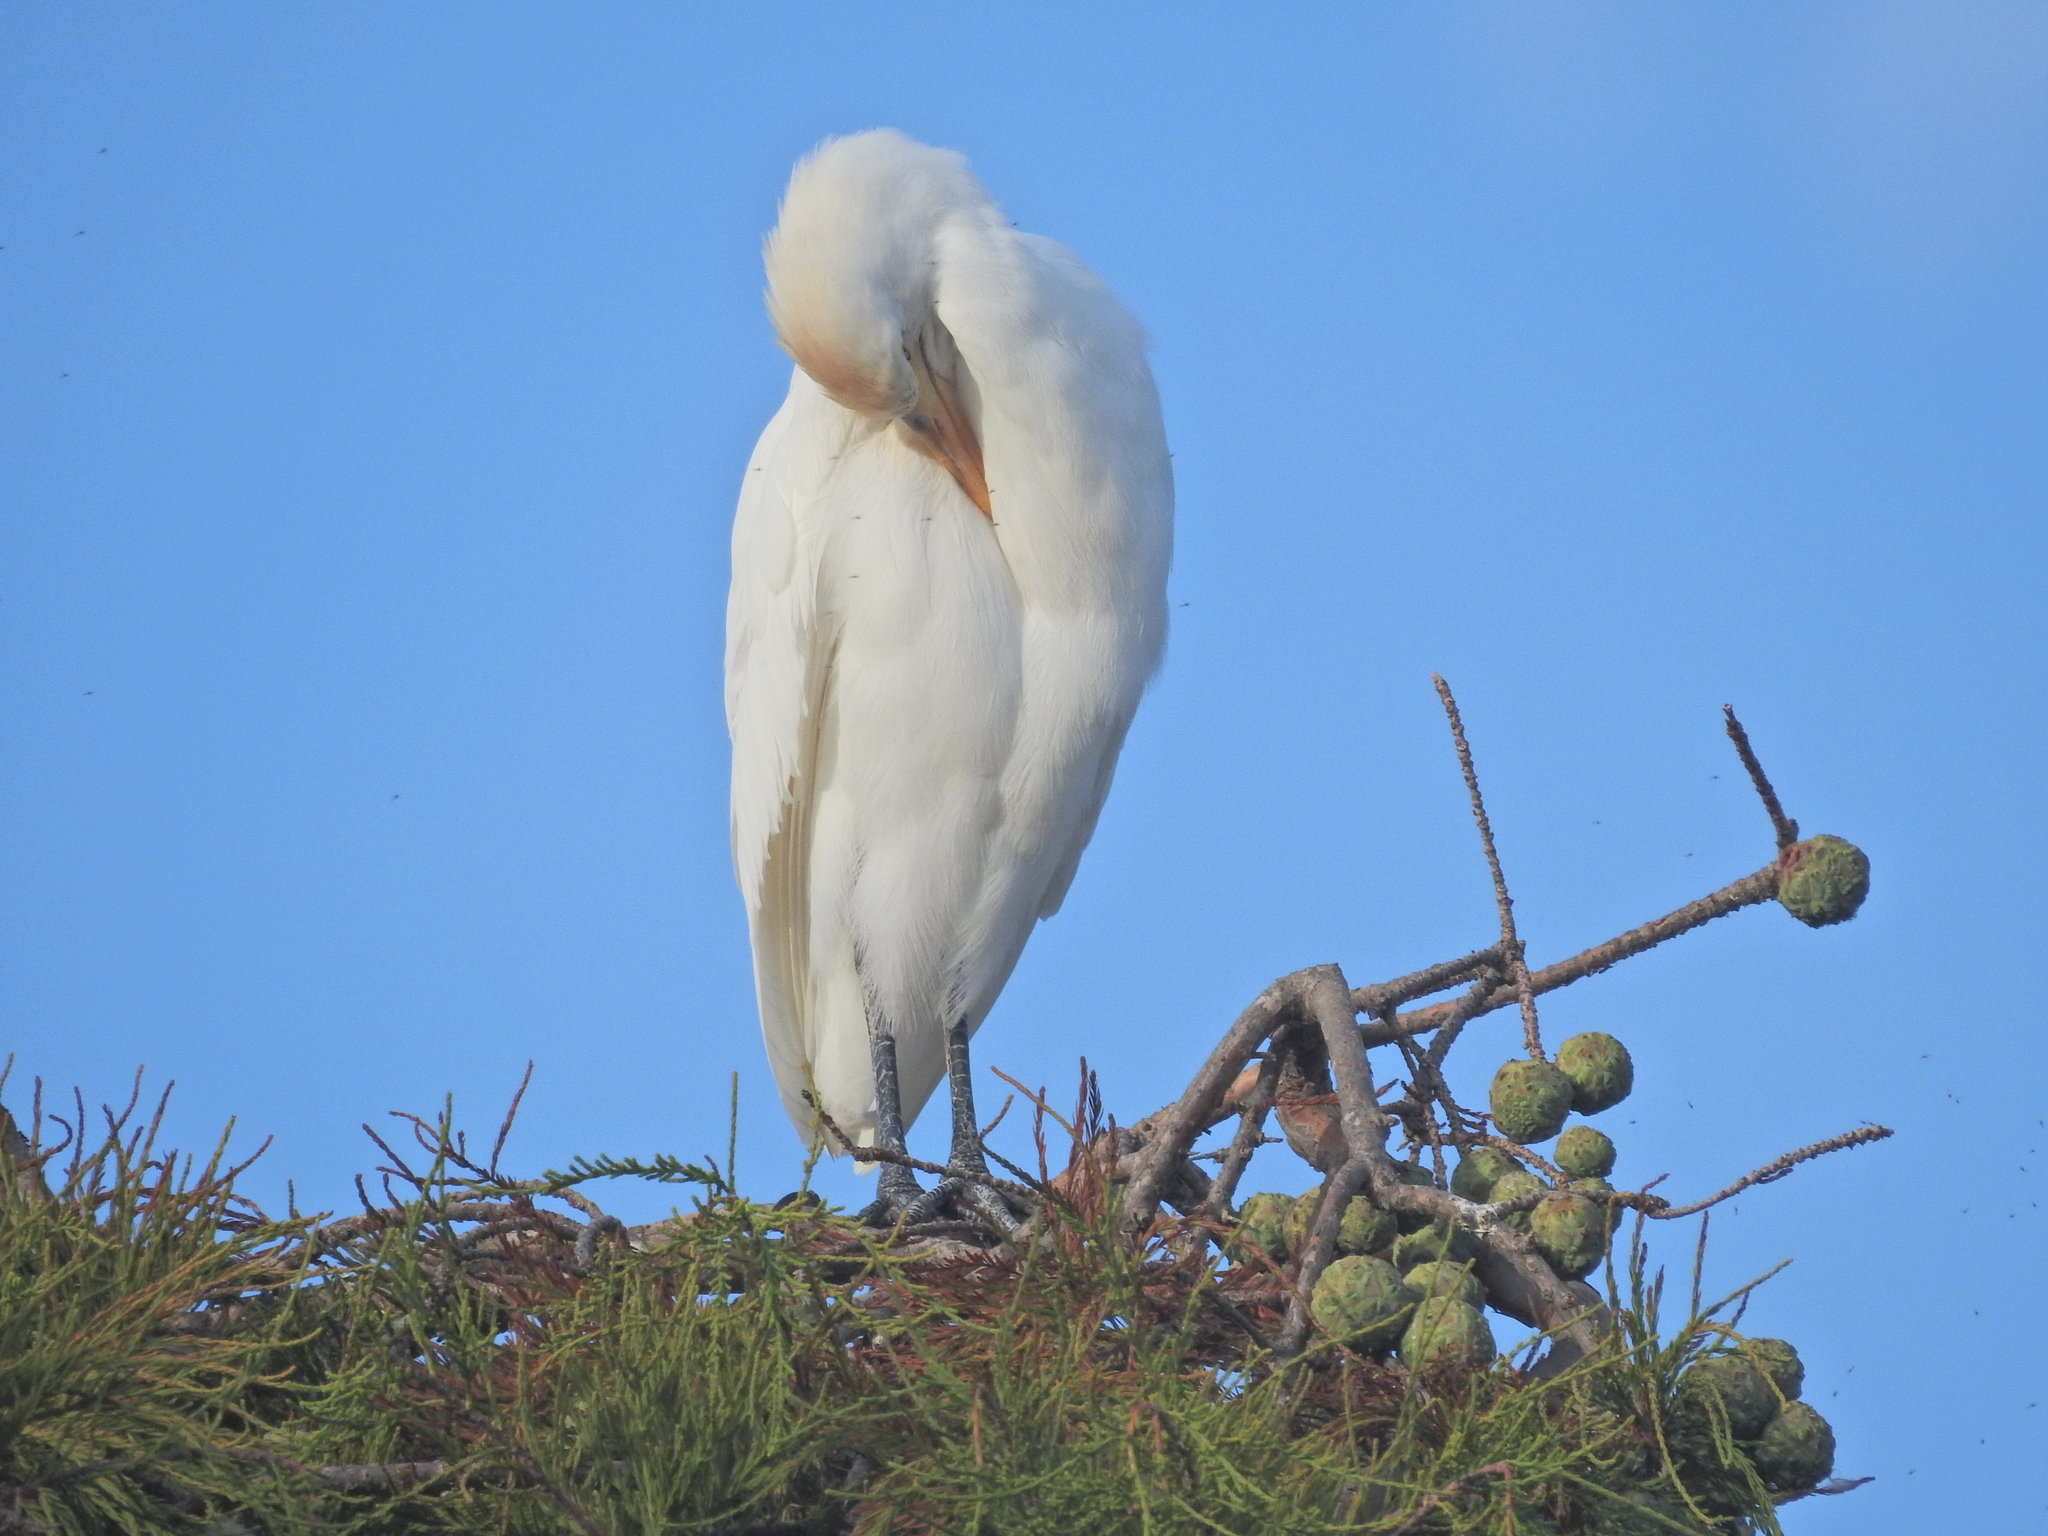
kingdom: Animalia
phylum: Chordata
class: Aves
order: Pelecaniformes
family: Ardeidae
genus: Bubulcus
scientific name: Bubulcus ibis
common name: Cattle egret
